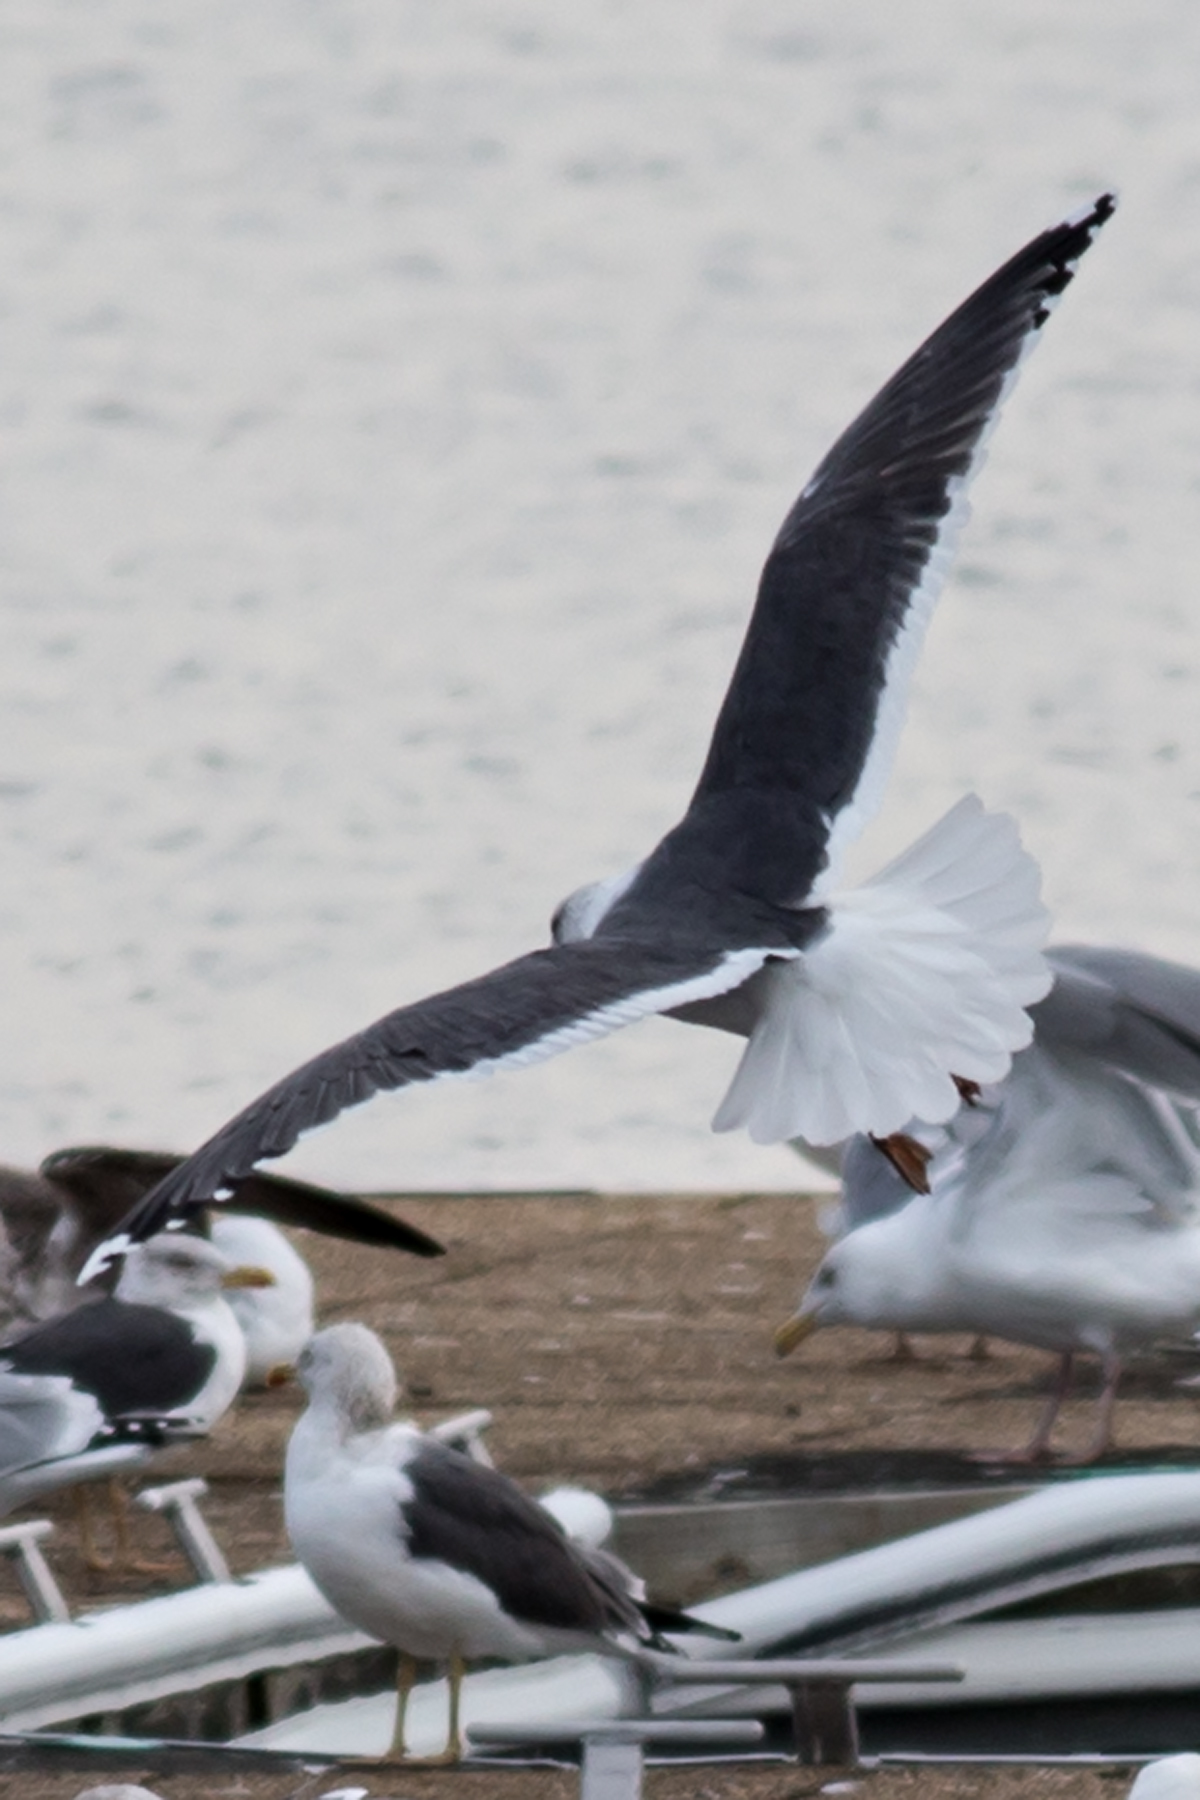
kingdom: Animalia
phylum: Chordata
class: Aves
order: Charadriiformes
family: Laridae
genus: Larus
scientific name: Larus fuscus
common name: Lesser black-backed gull
